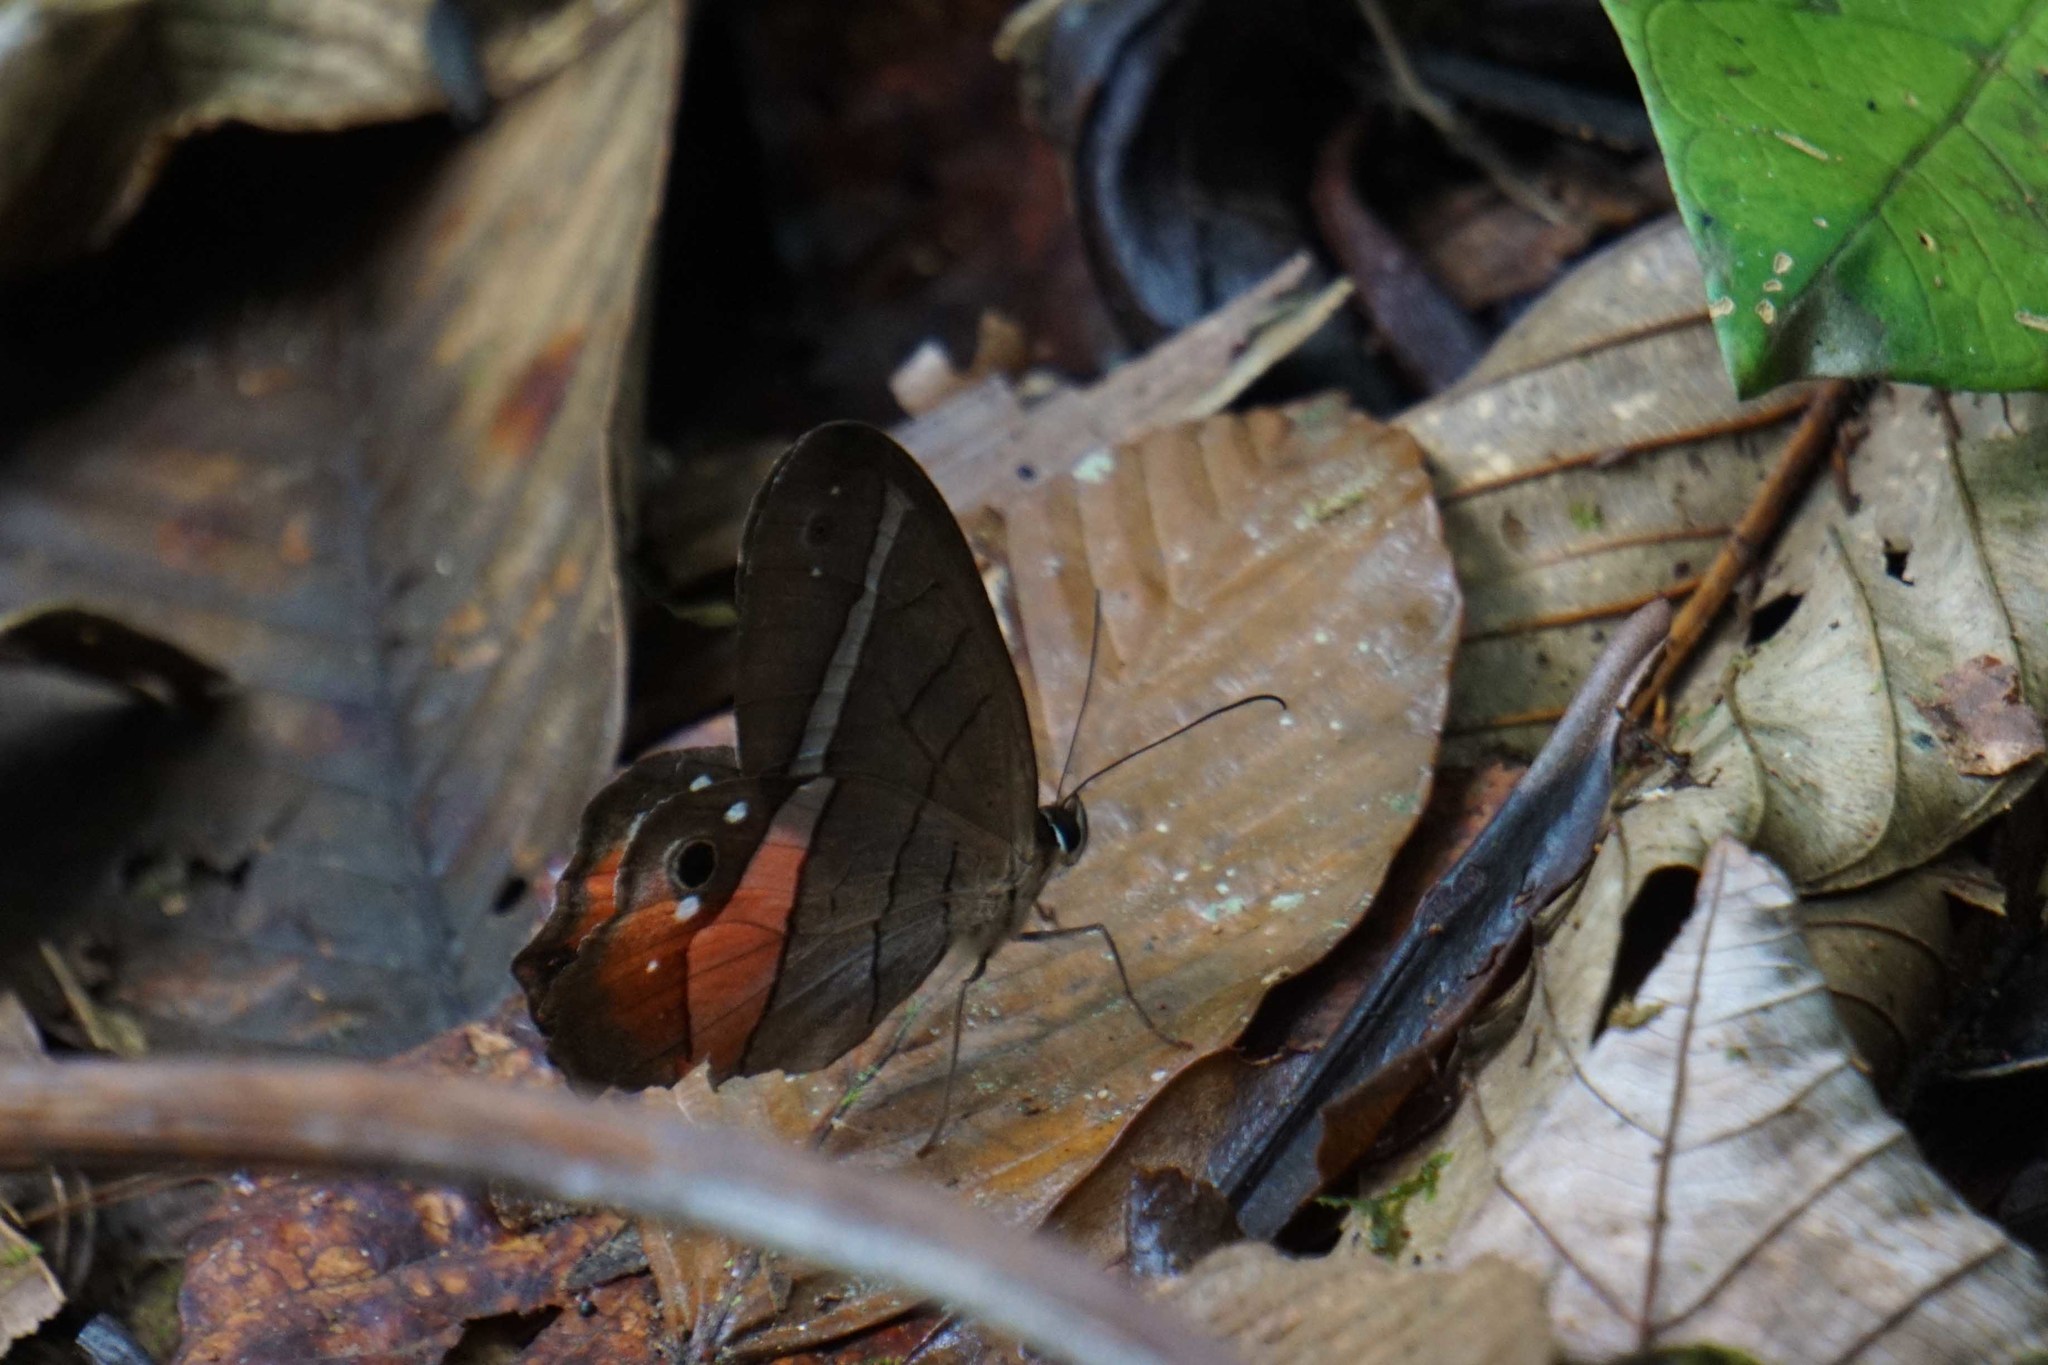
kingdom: Animalia
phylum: Arthropoda
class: Insecta
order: Lepidoptera
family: Nymphalidae
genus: Pierella
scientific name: Pierella helvina
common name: Red-washed satyr
